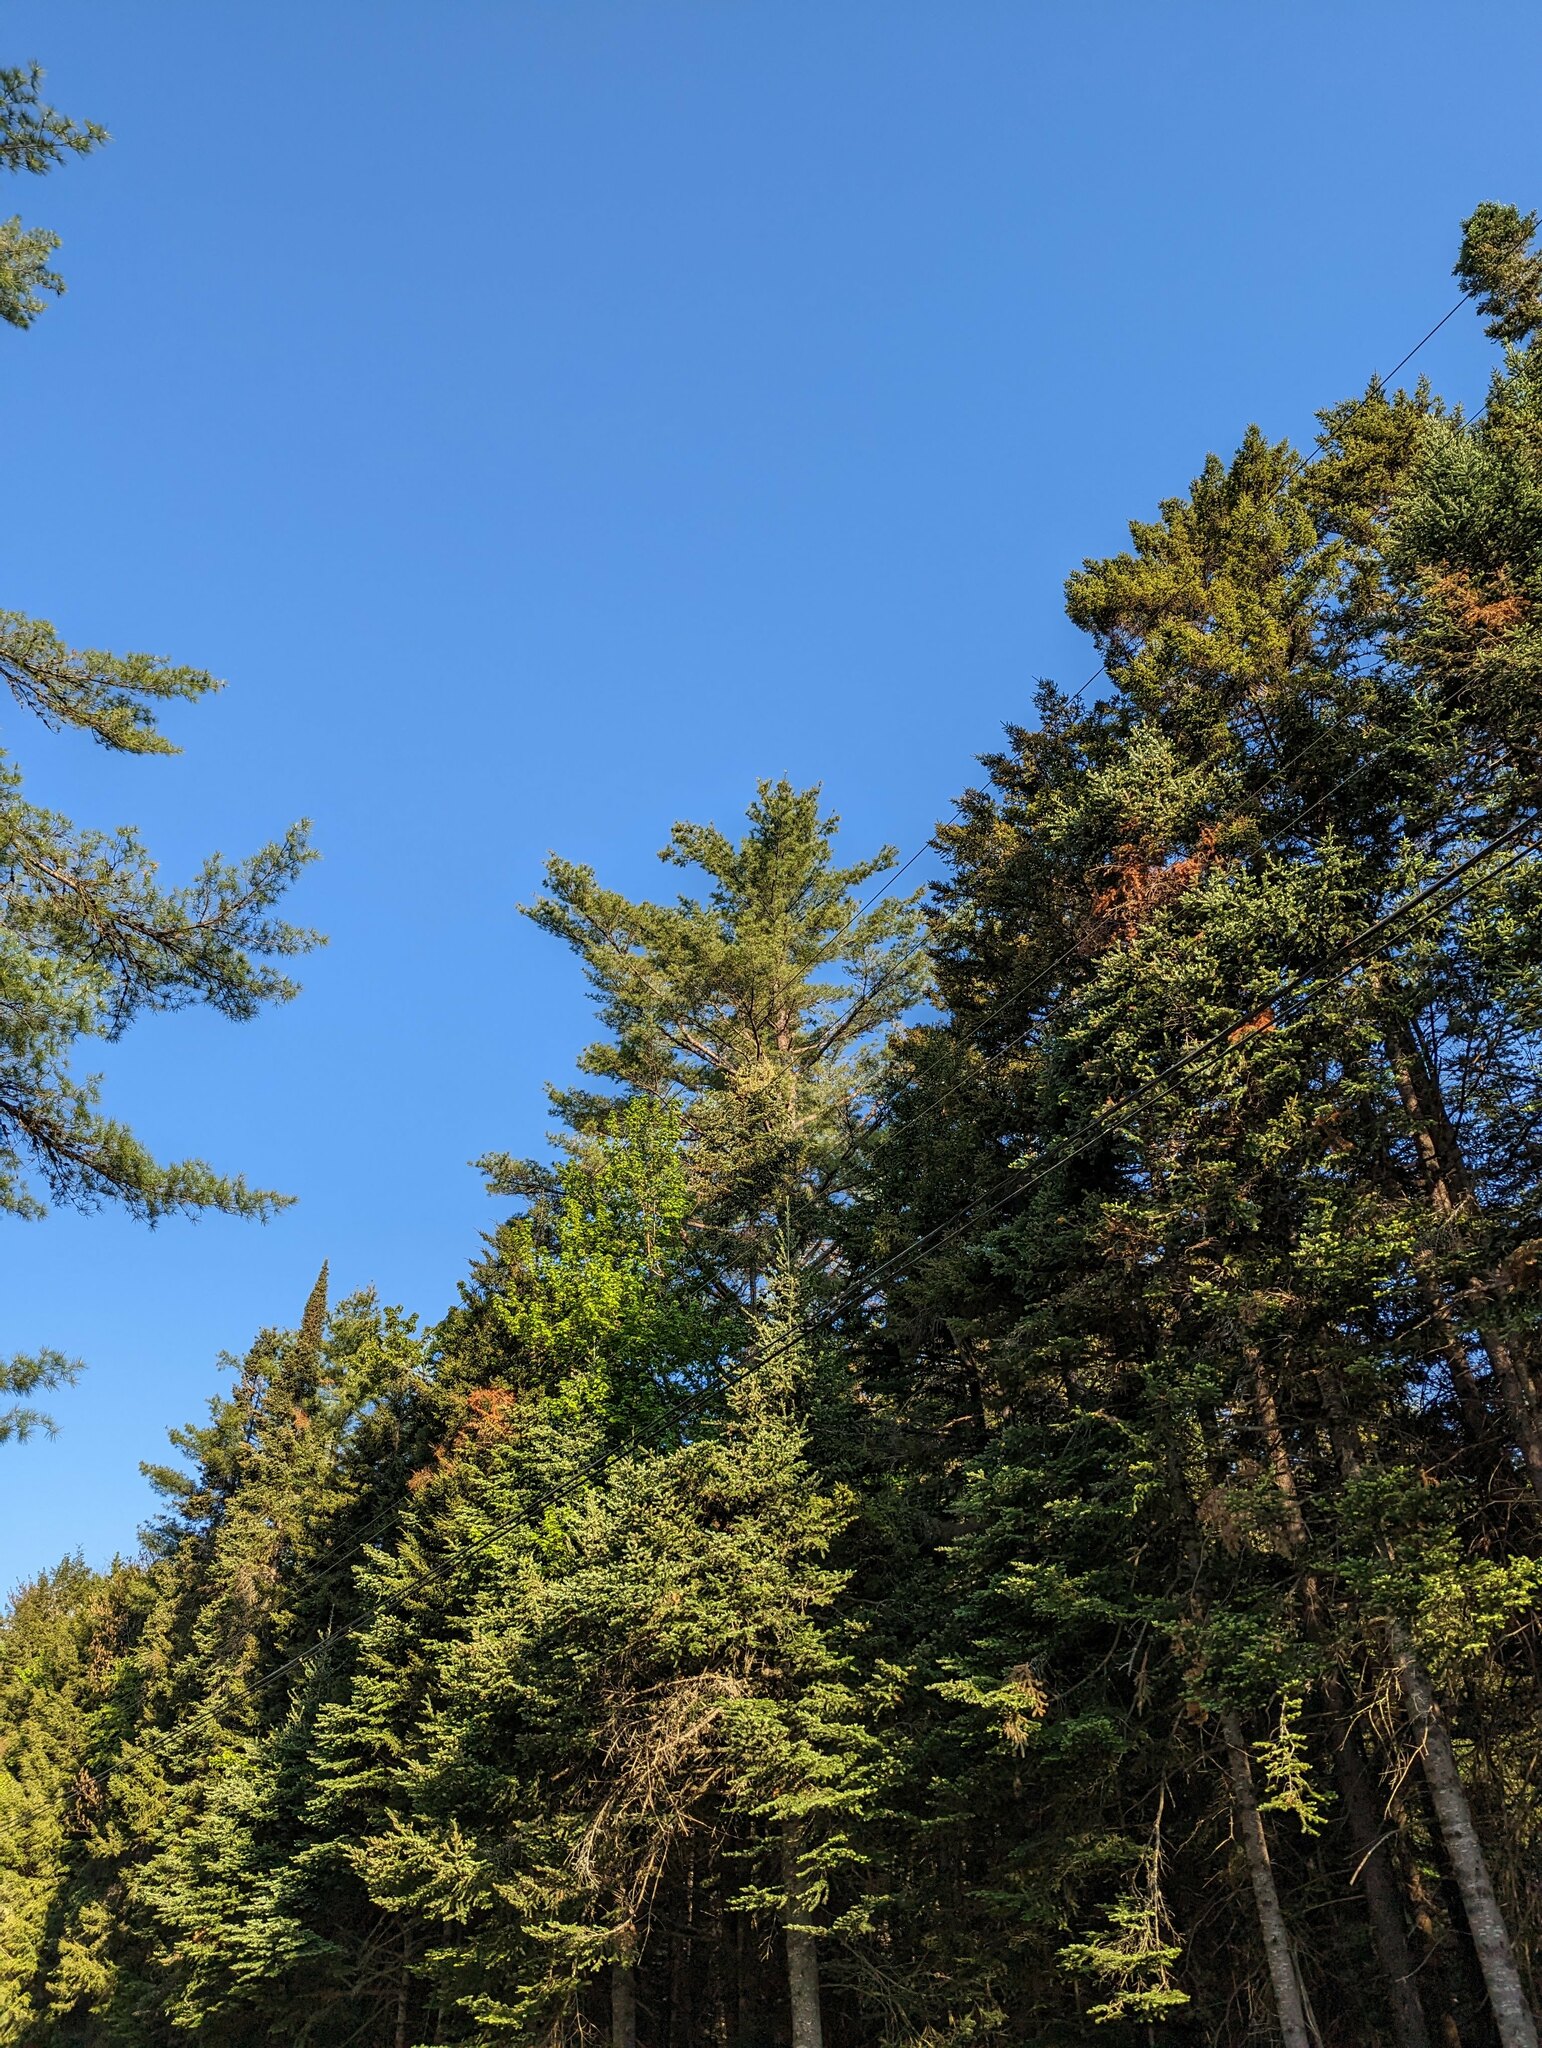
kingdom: Plantae
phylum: Tracheophyta
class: Pinopsida
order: Pinales
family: Pinaceae
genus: Pinus
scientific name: Pinus strobus
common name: Weymouth pine
